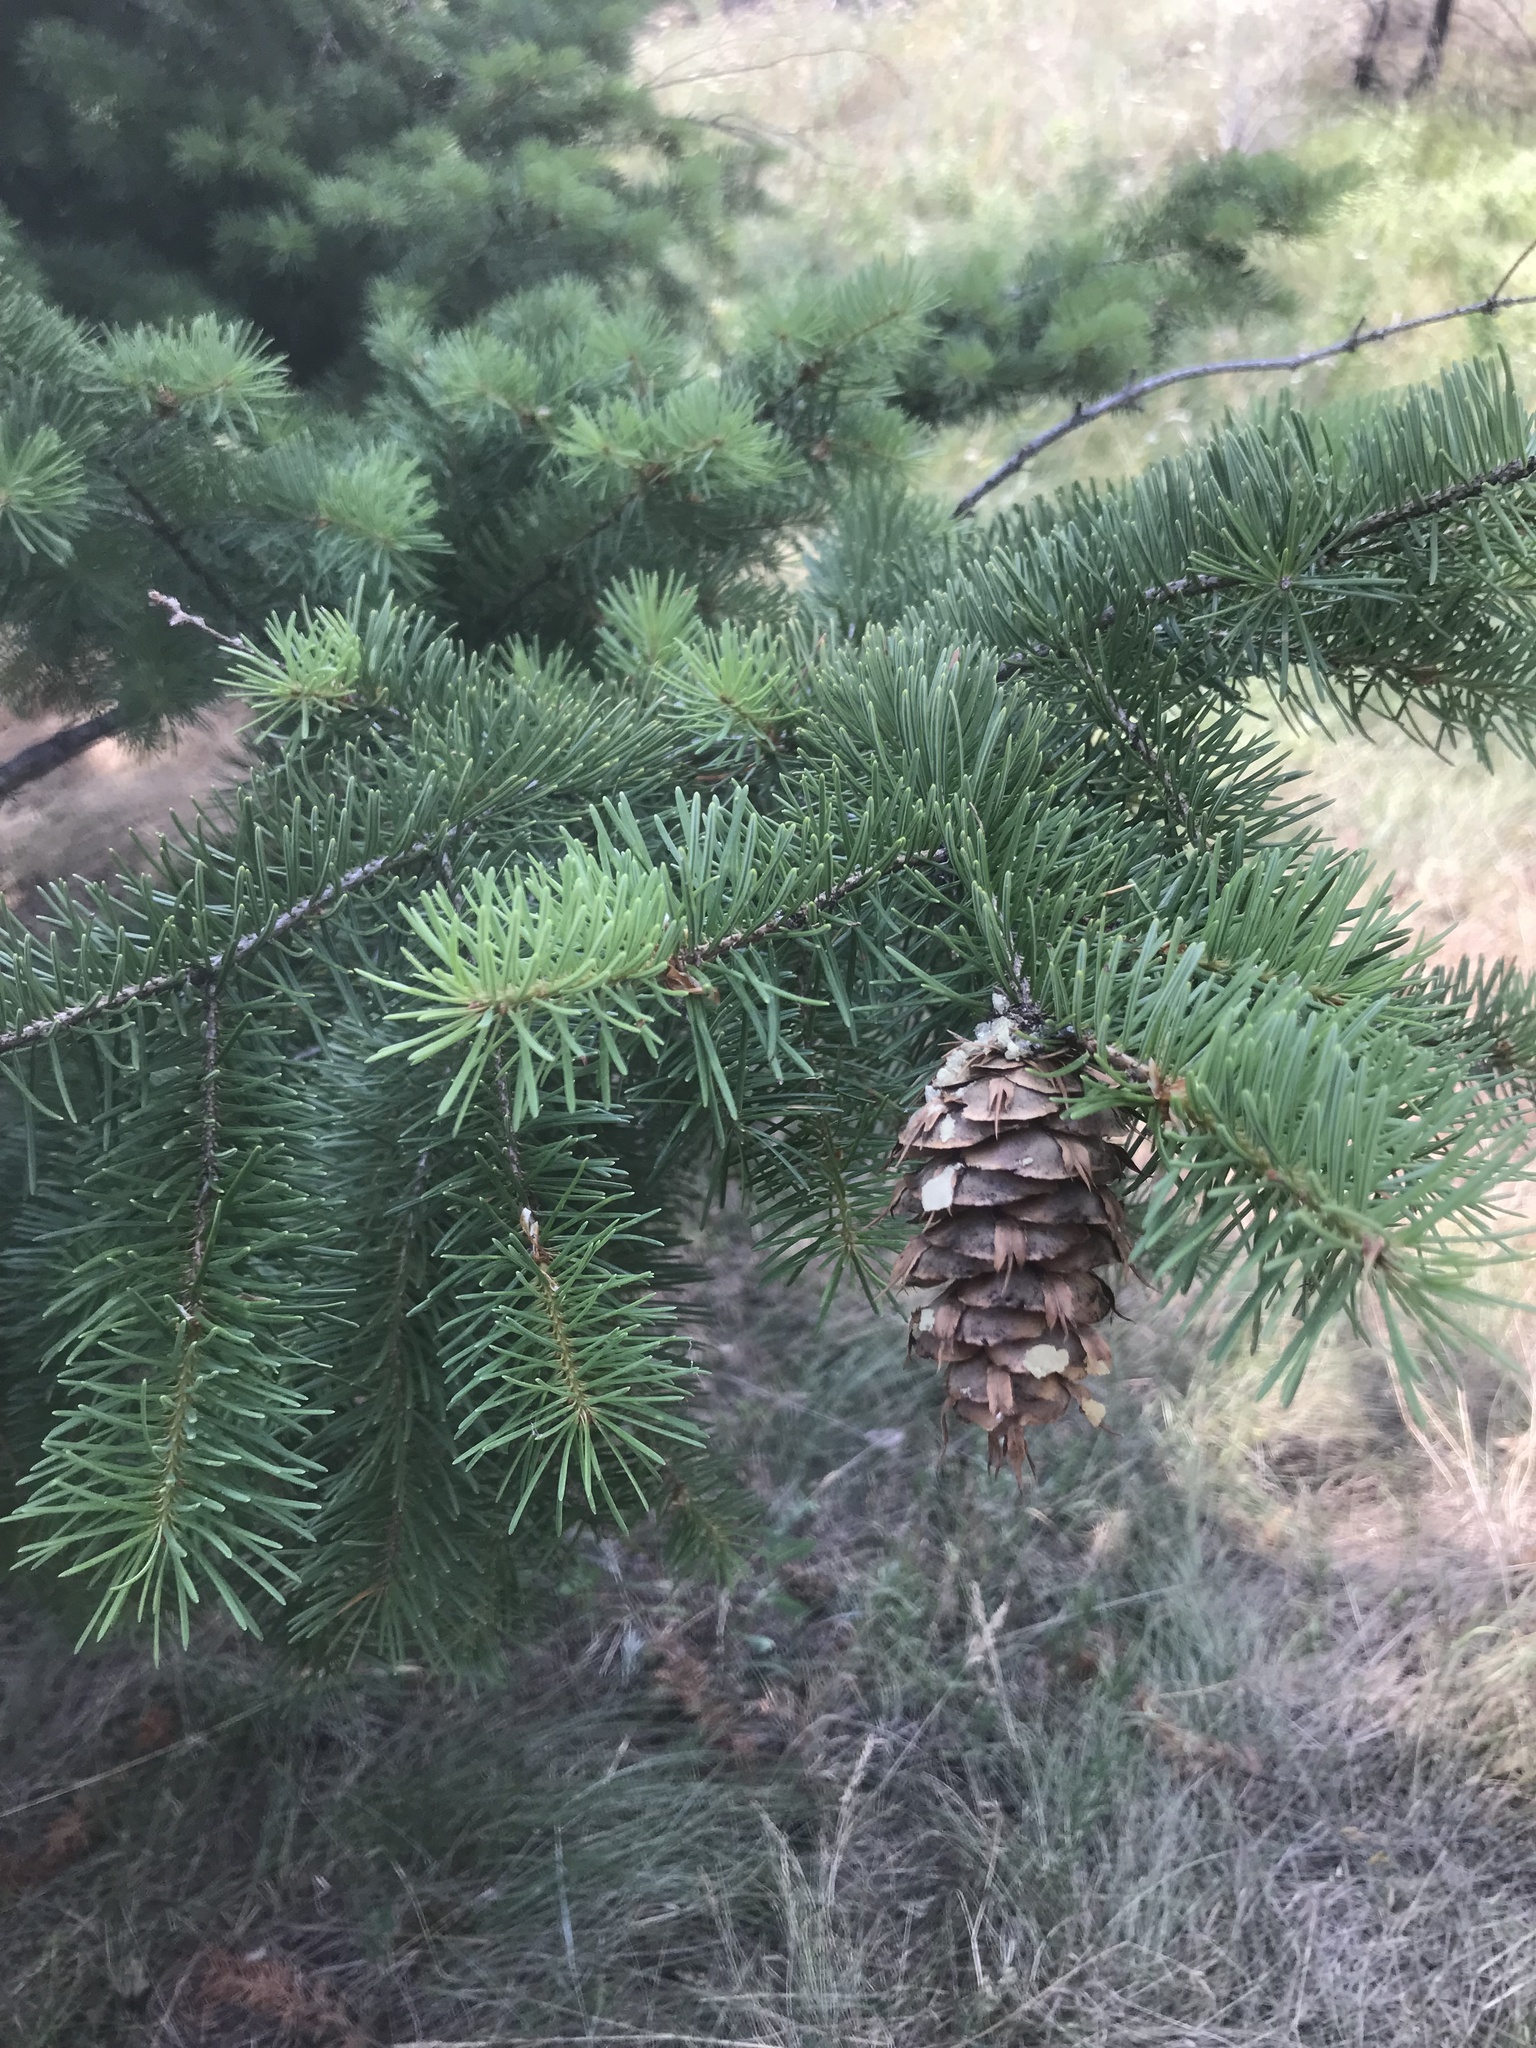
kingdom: Plantae
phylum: Tracheophyta
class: Pinopsida
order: Pinales
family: Pinaceae
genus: Pseudotsuga
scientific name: Pseudotsuga menziesii
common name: Douglas fir
